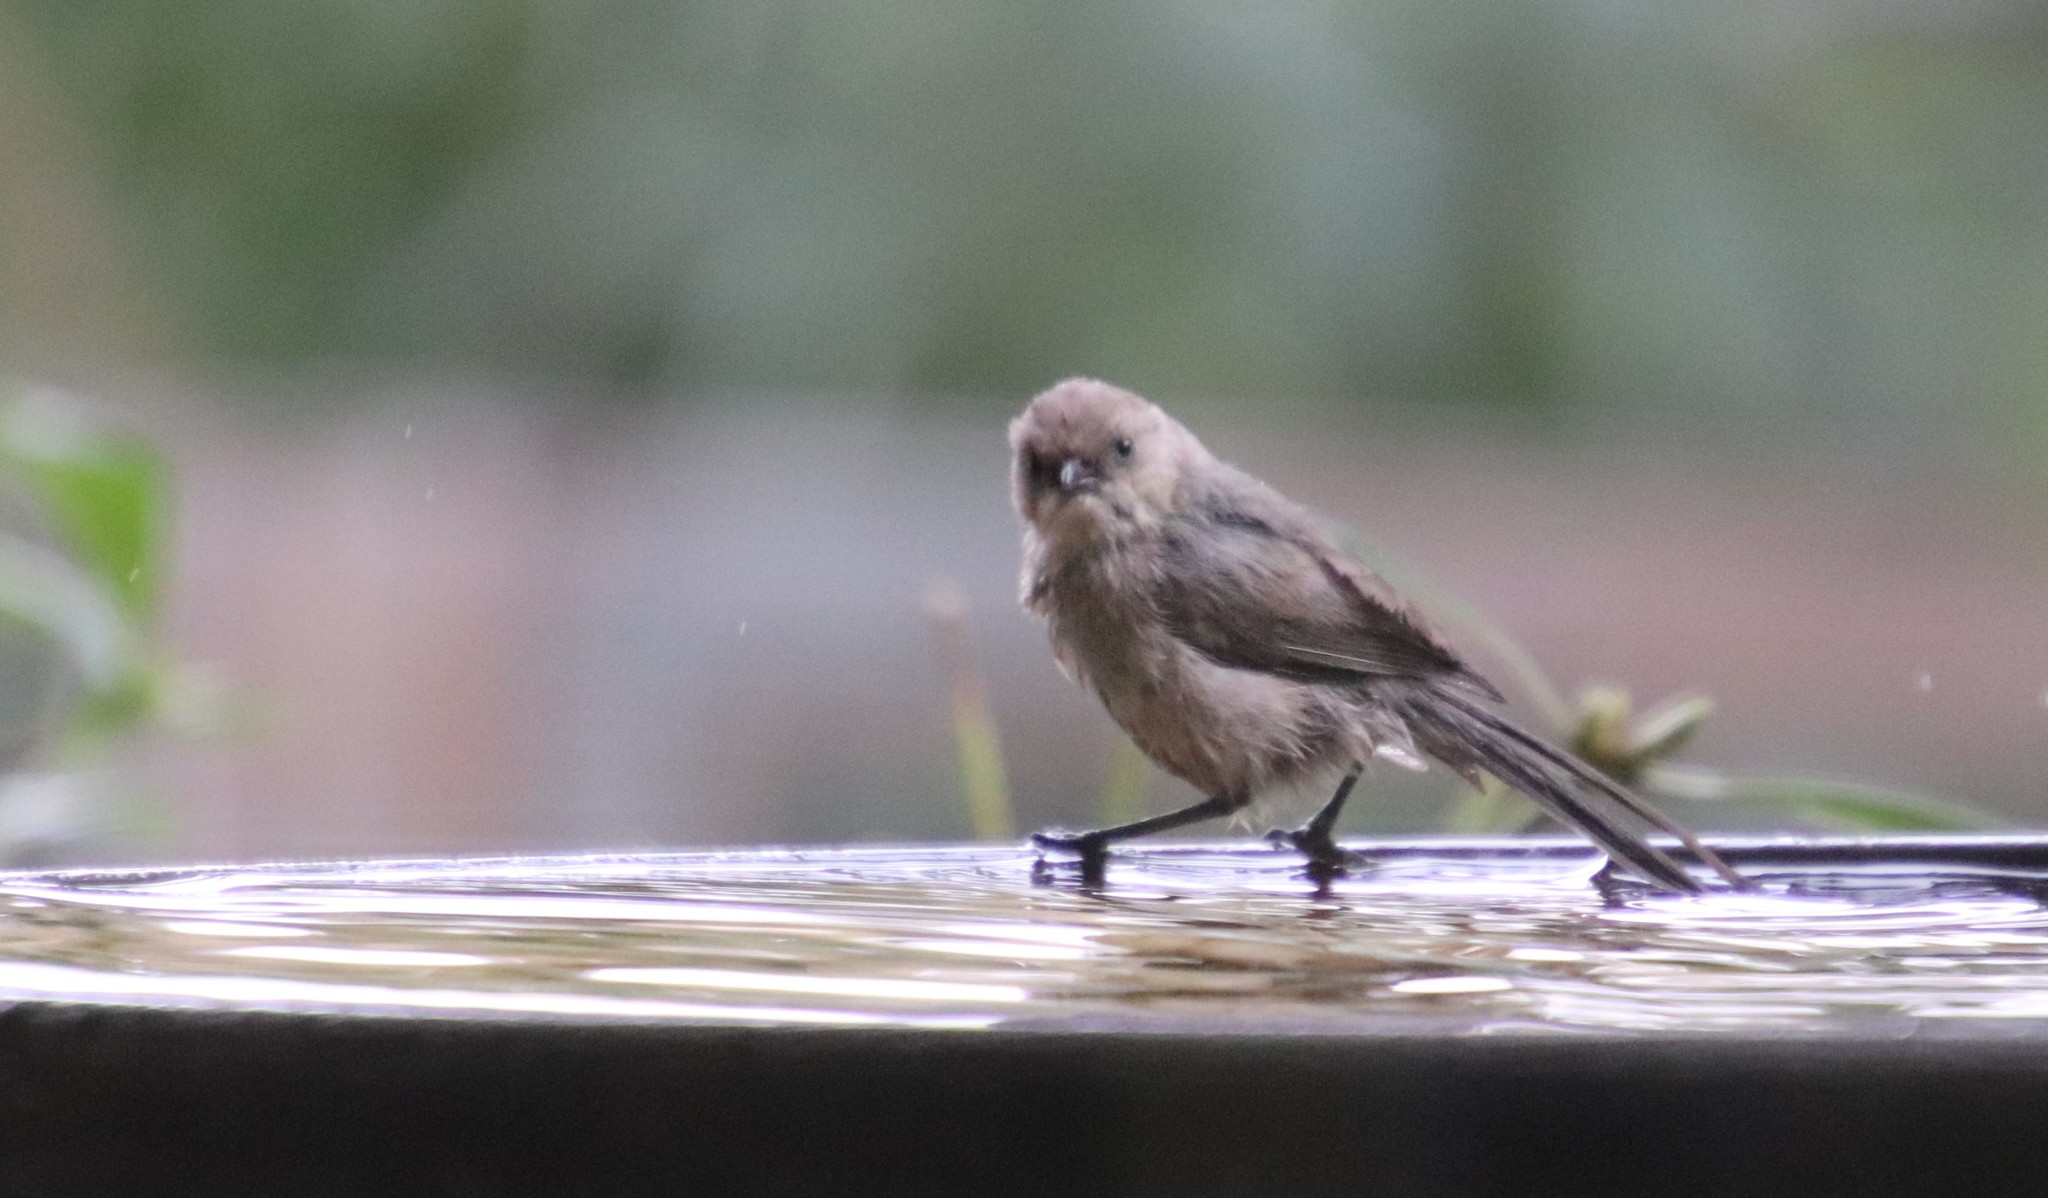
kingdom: Animalia
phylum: Chordata
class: Aves
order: Passeriformes
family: Aegithalidae
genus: Psaltriparus
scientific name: Psaltriparus minimus
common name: American bushtit
